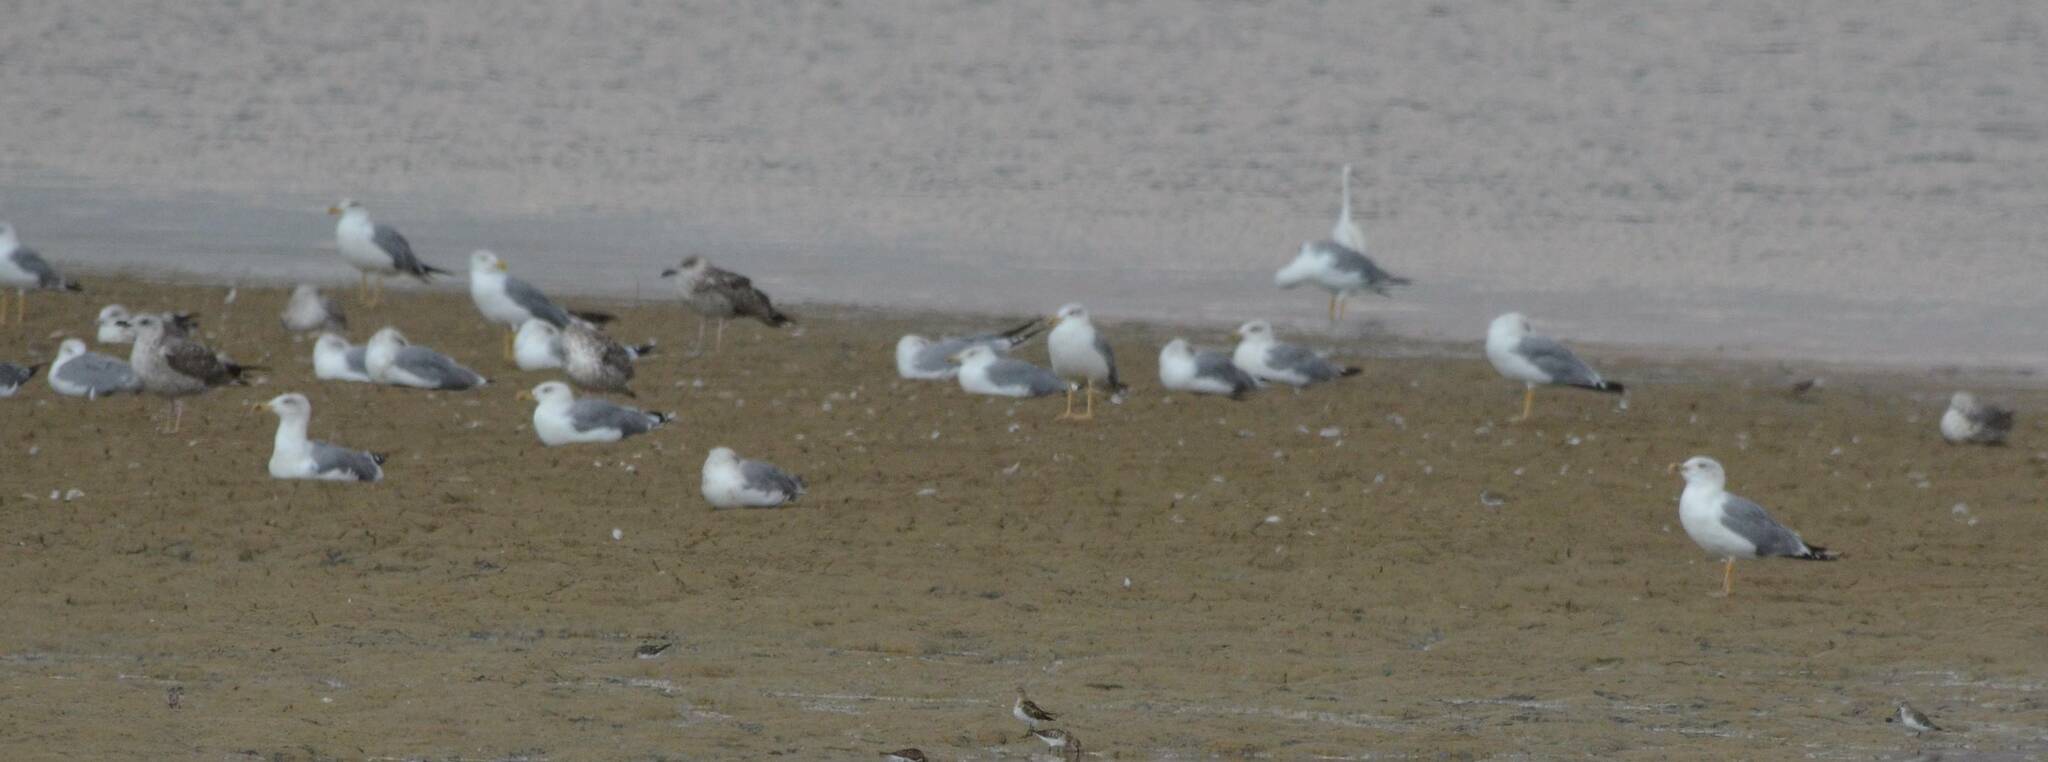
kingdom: Animalia
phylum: Chordata
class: Aves
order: Charadriiformes
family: Laridae
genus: Larus
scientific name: Larus michahellis
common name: Yellow-legged gull
